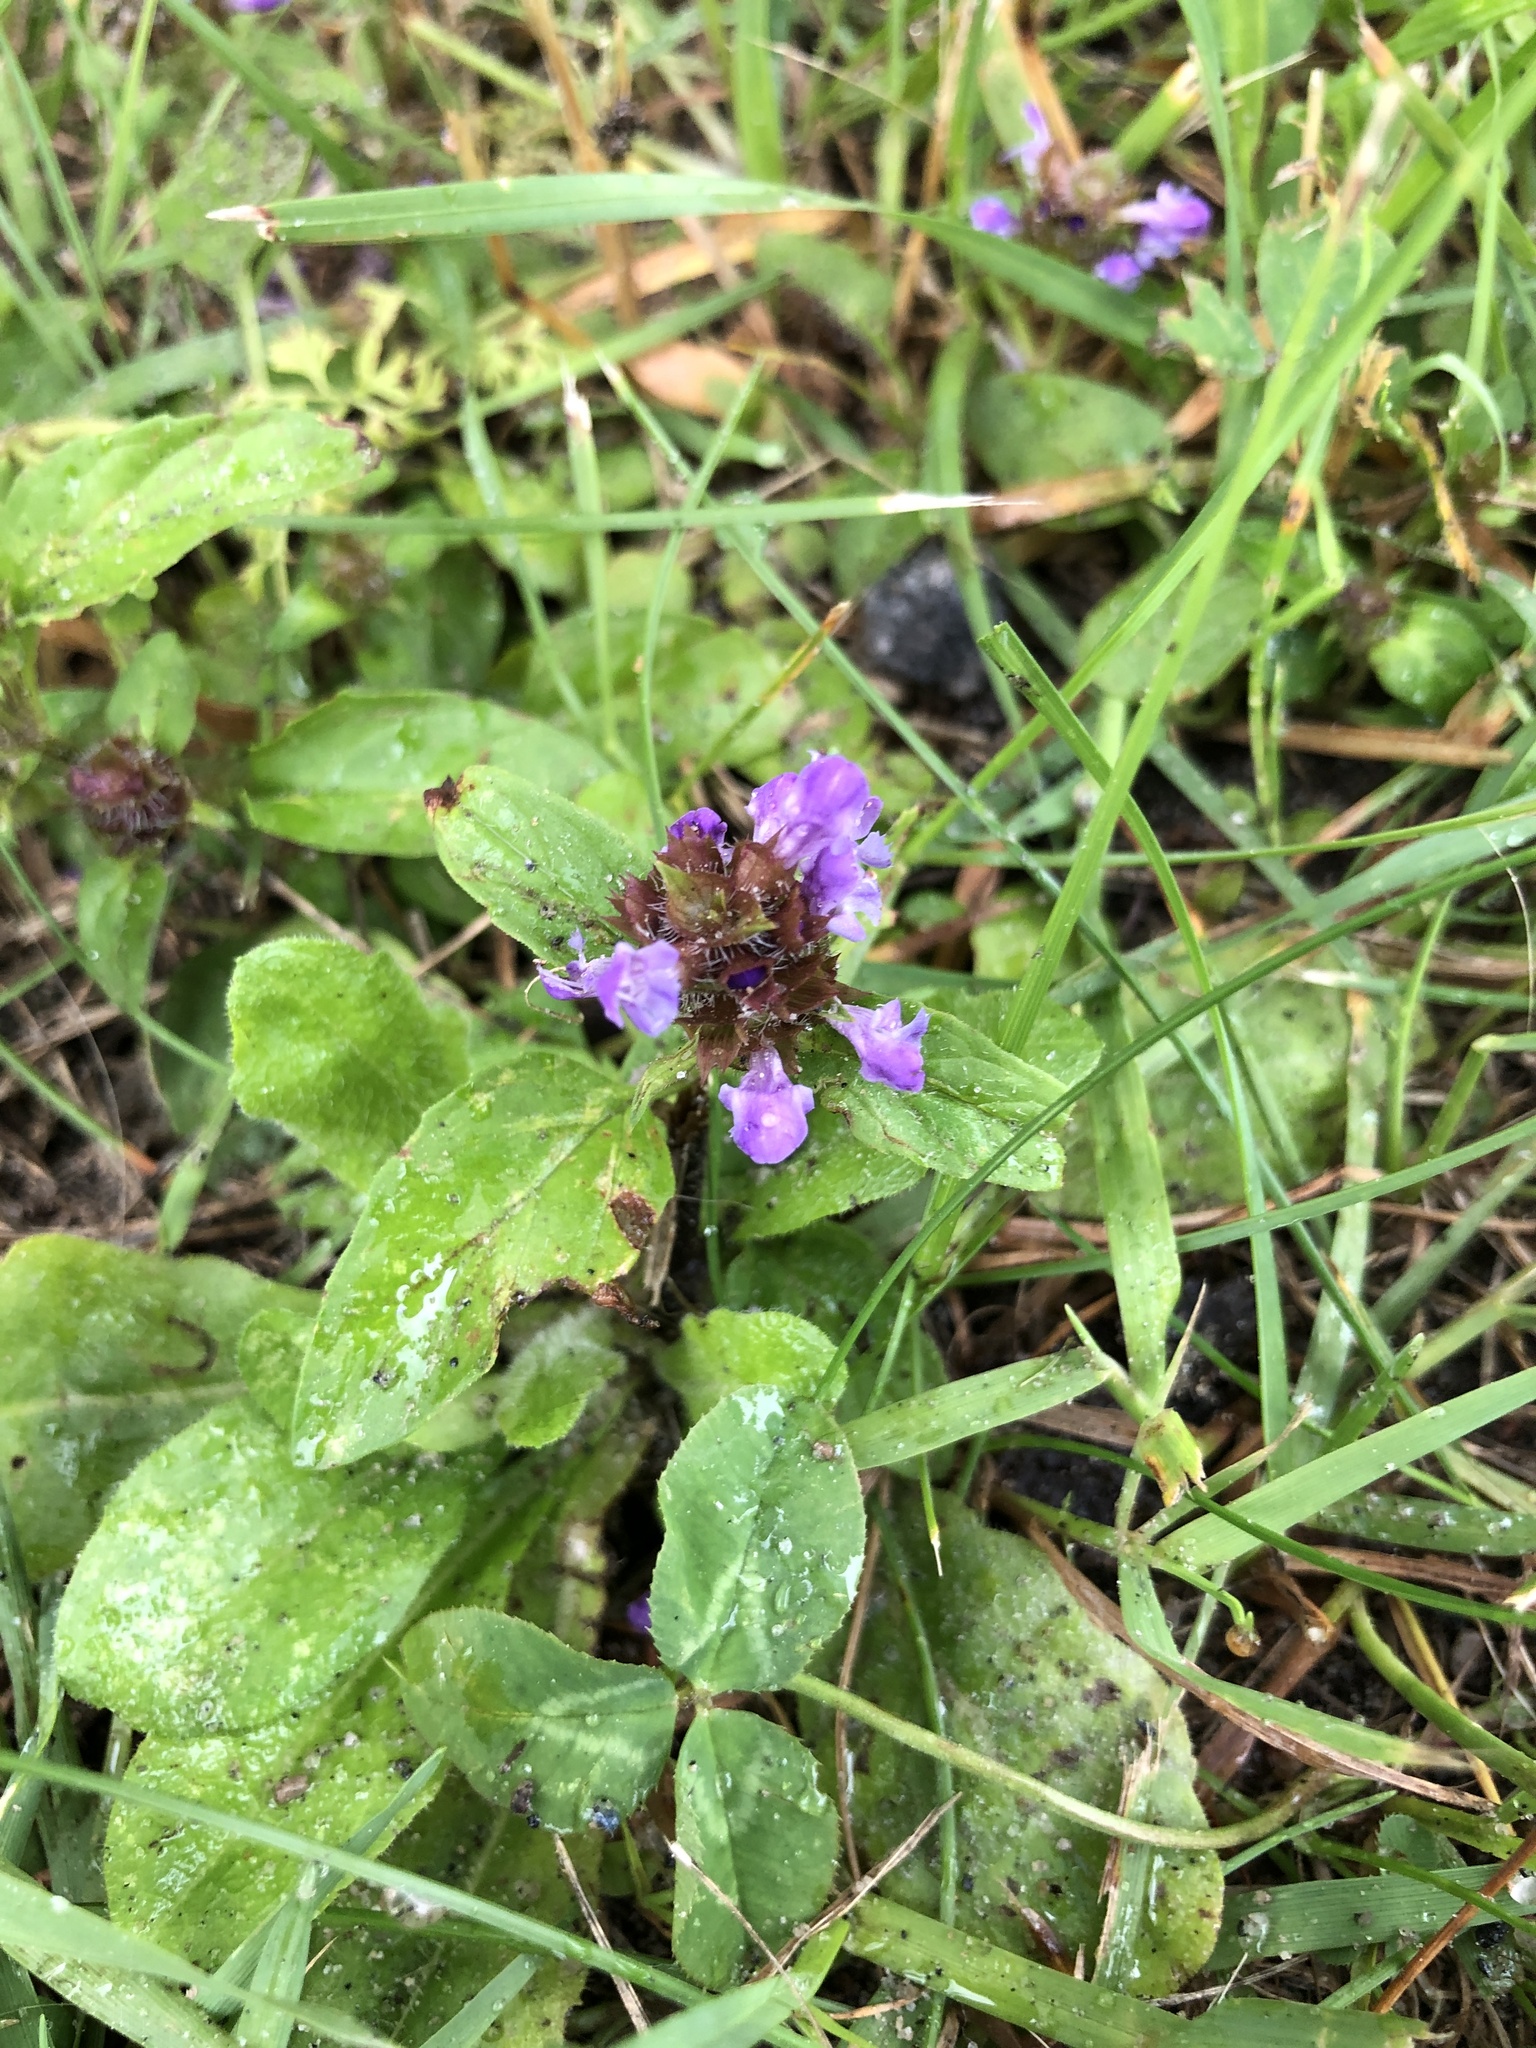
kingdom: Plantae
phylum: Tracheophyta
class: Magnoliopsida
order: Lamiales
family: Lamiaceae
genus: Prunella
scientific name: Prunella vulgaris
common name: Heal-all
